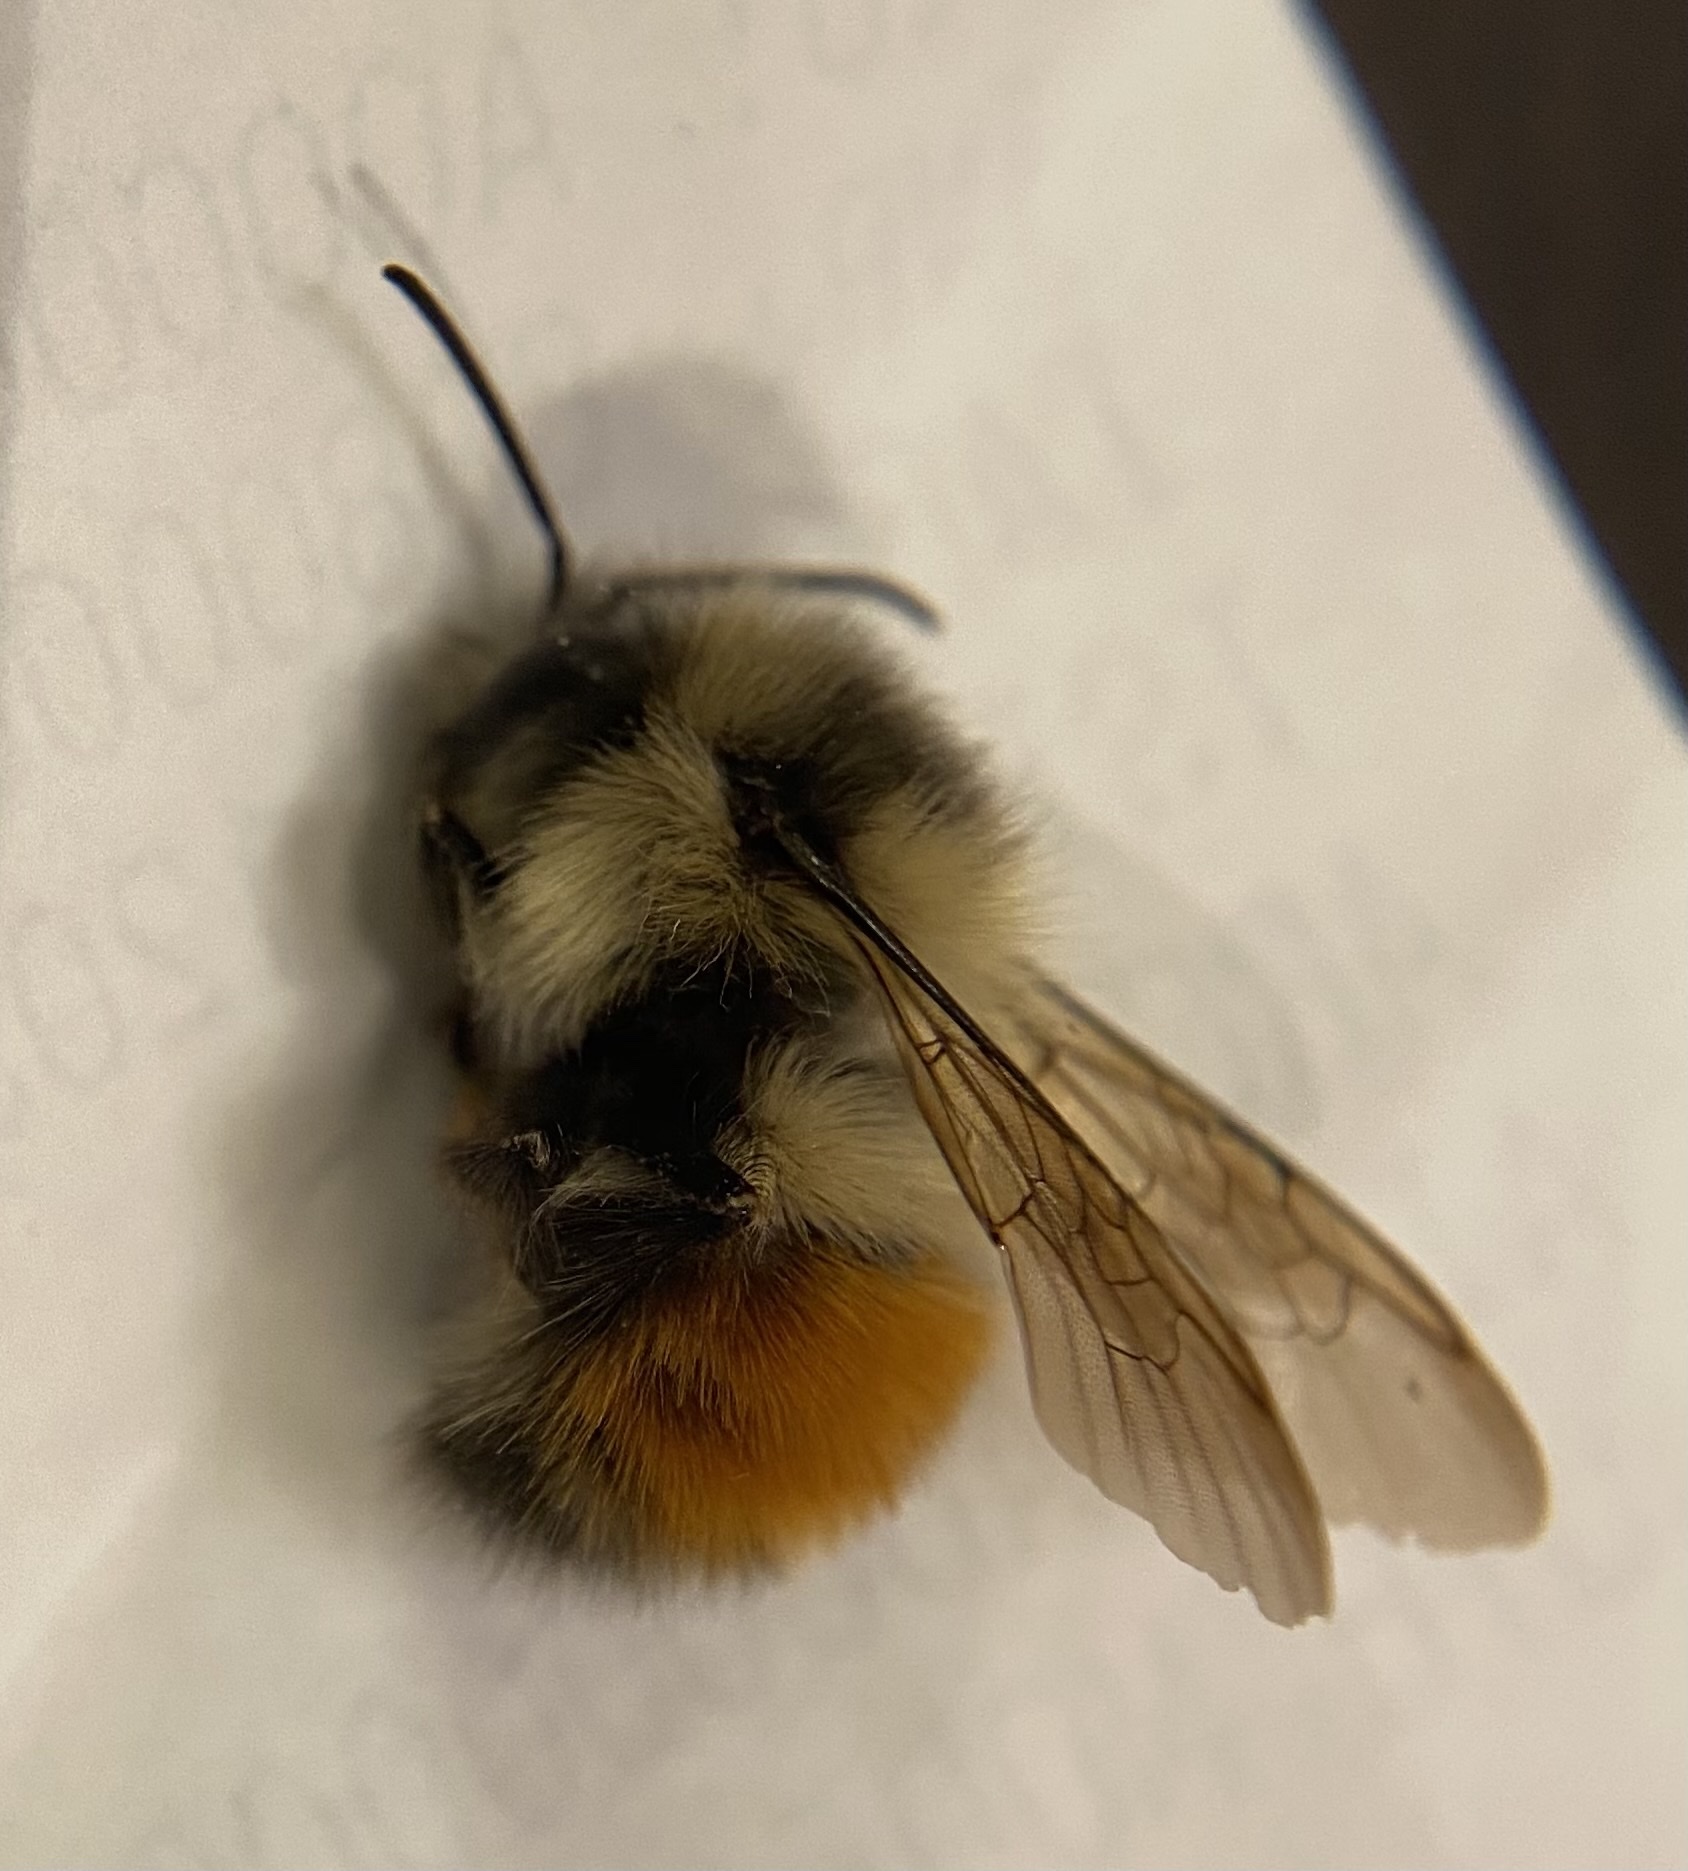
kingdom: Animalia
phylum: Arthropoda
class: Insecta
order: Hymenoptera
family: Apidae
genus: Bombus
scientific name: Bombus melanopygus
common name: Black tail bumble bee
